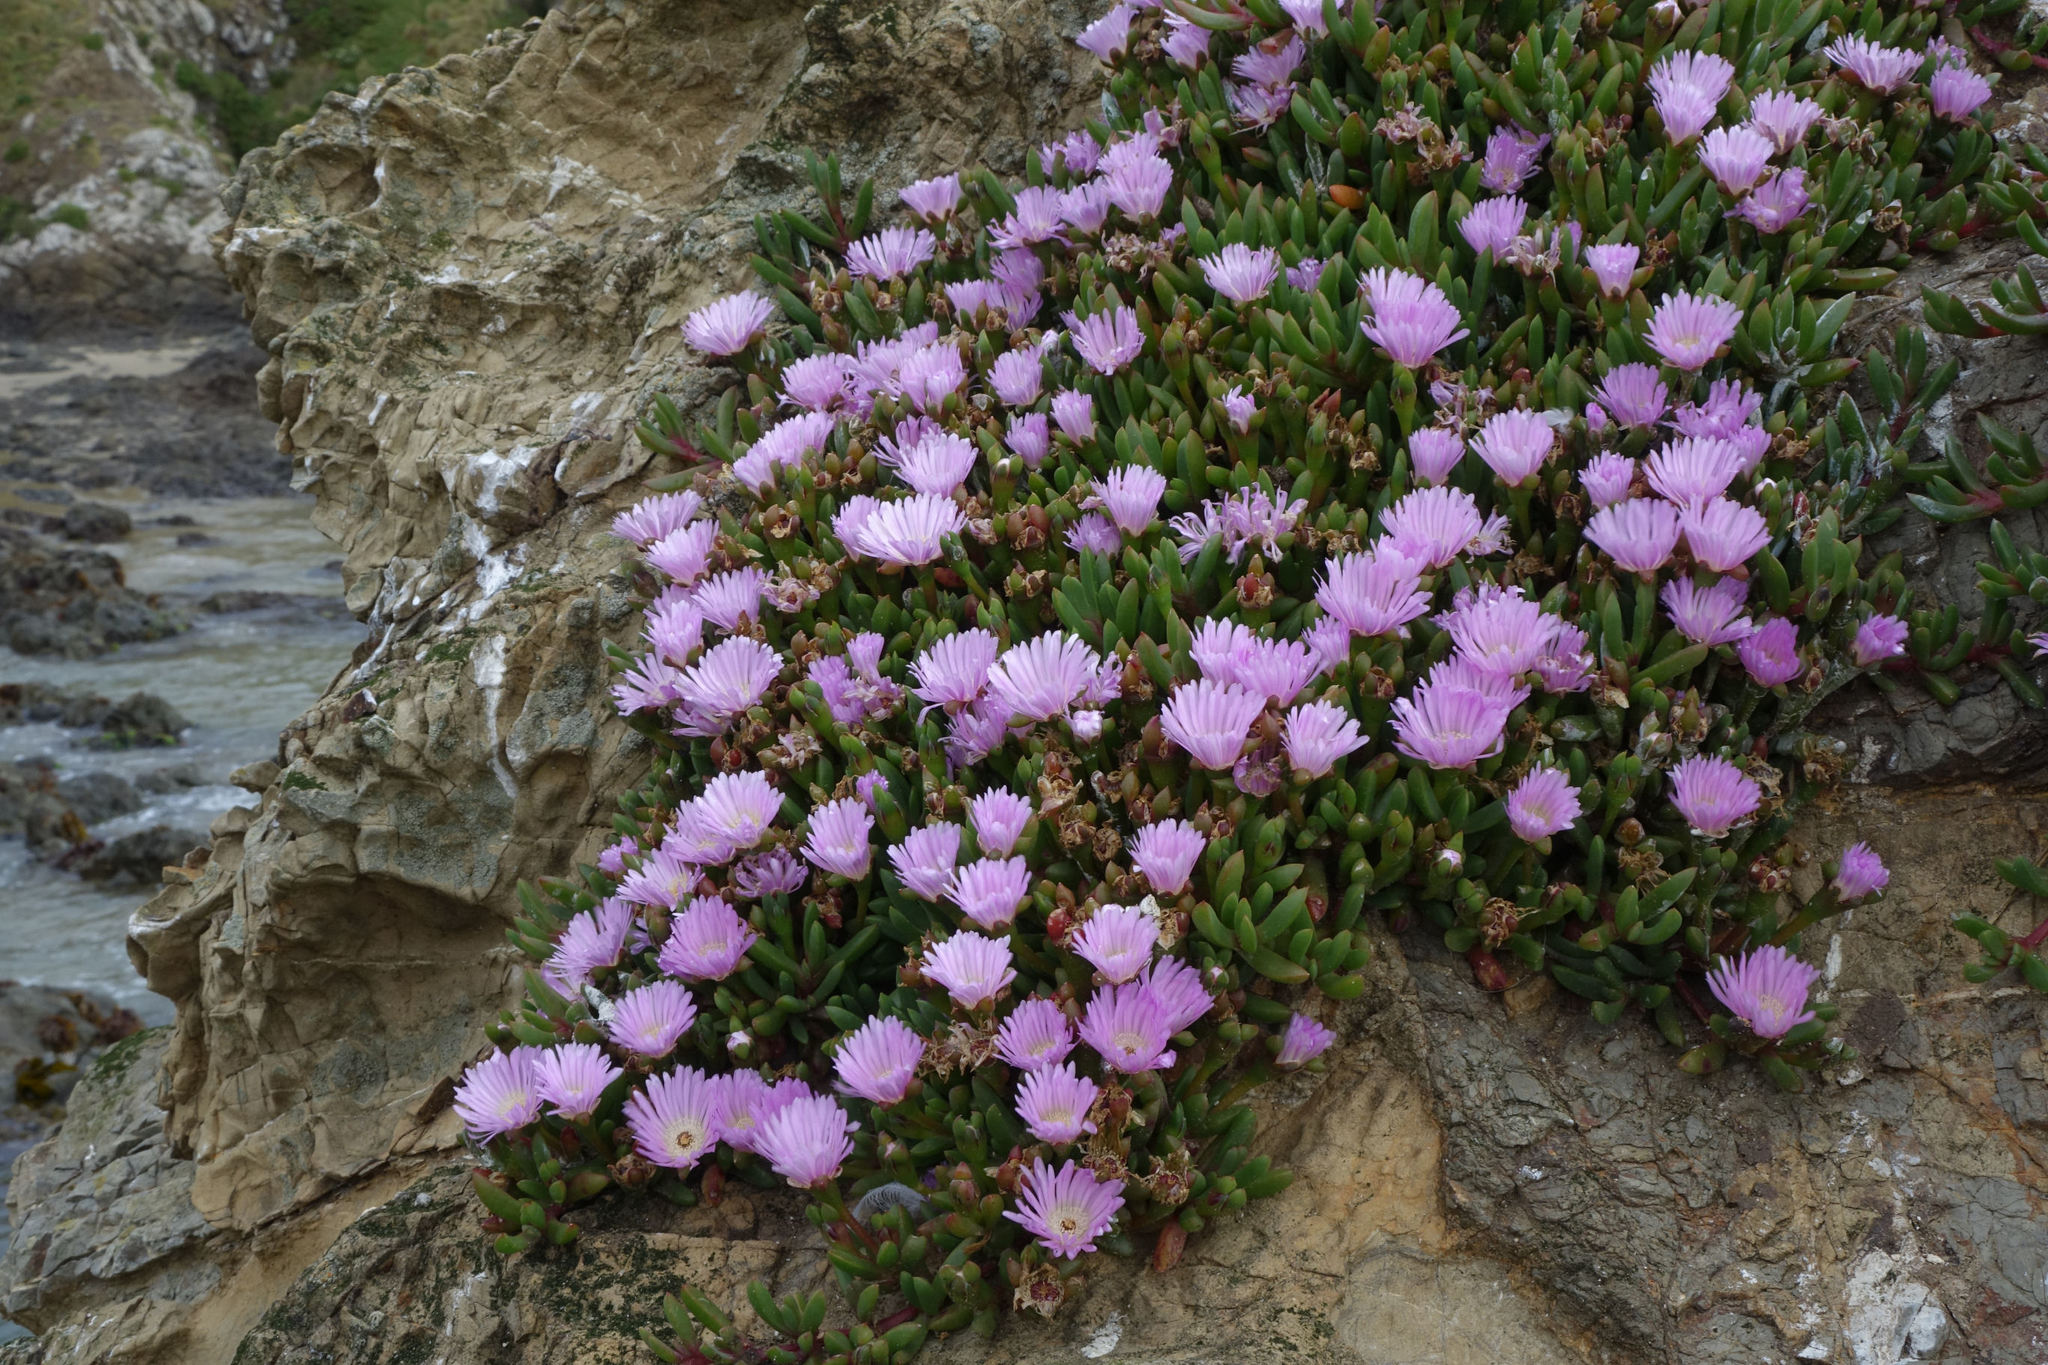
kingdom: Plantae
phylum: Tracheophyta
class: Magnoliopsida
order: Caryophyllales
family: Aizoaceae
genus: Disphyma
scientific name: Disphyma australe
